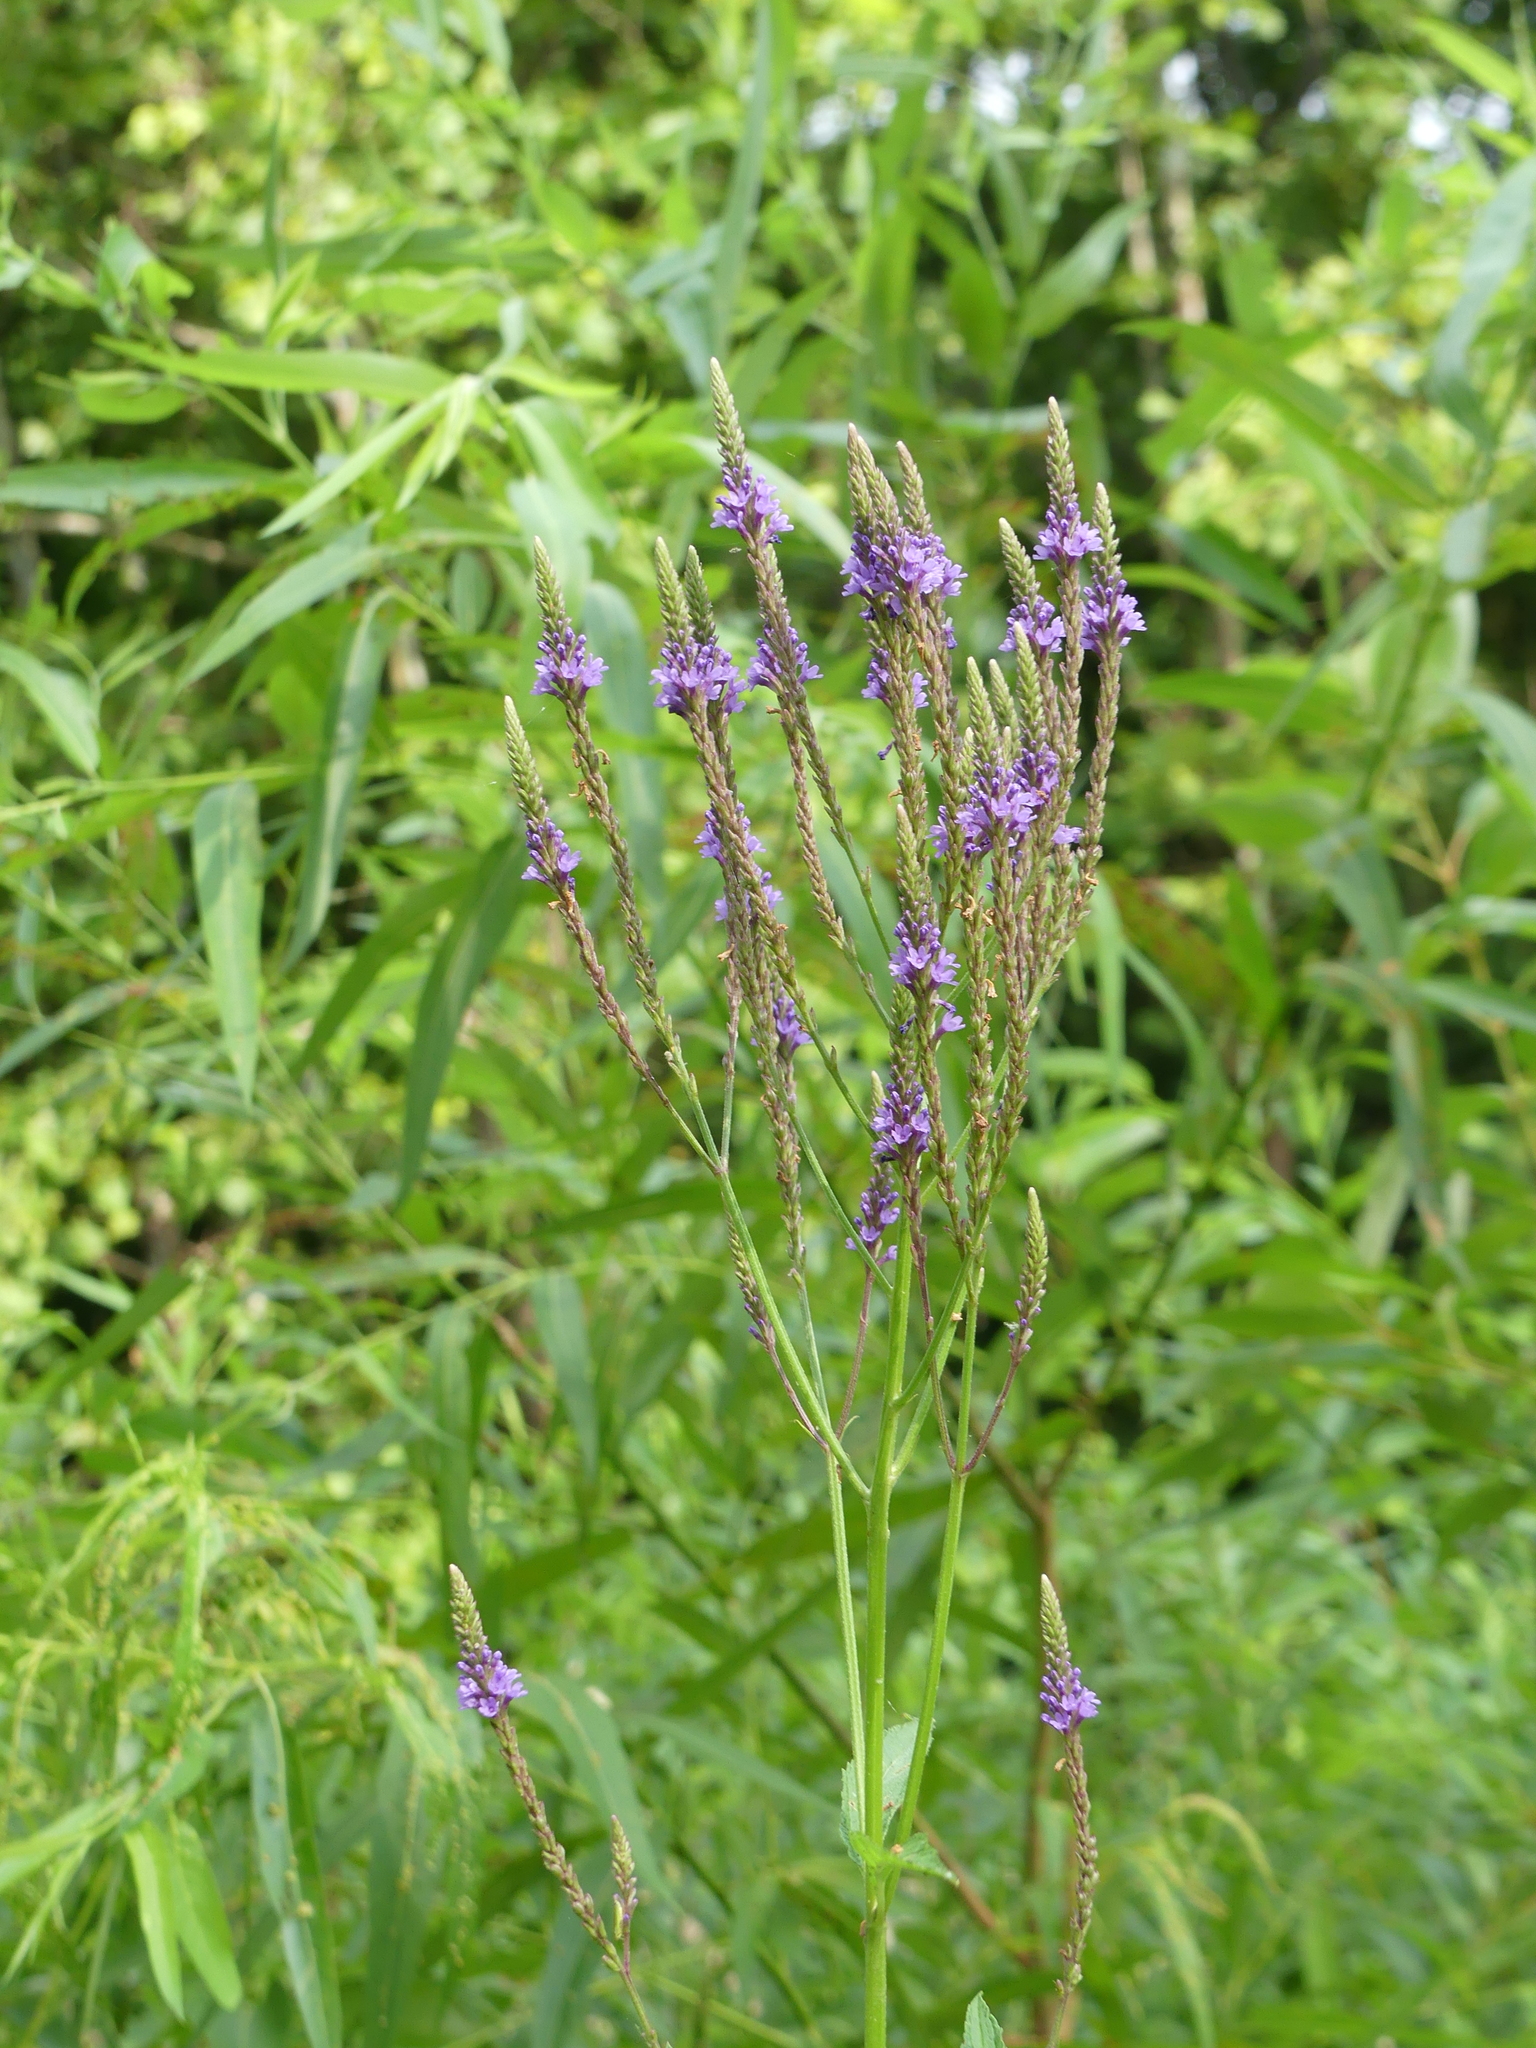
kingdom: Plantae
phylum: Tracheophyta
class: Magnoliopsida
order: Lamiales
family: Verbenaceae
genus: Verbena
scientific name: Verbena hastata
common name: American blue vervain
